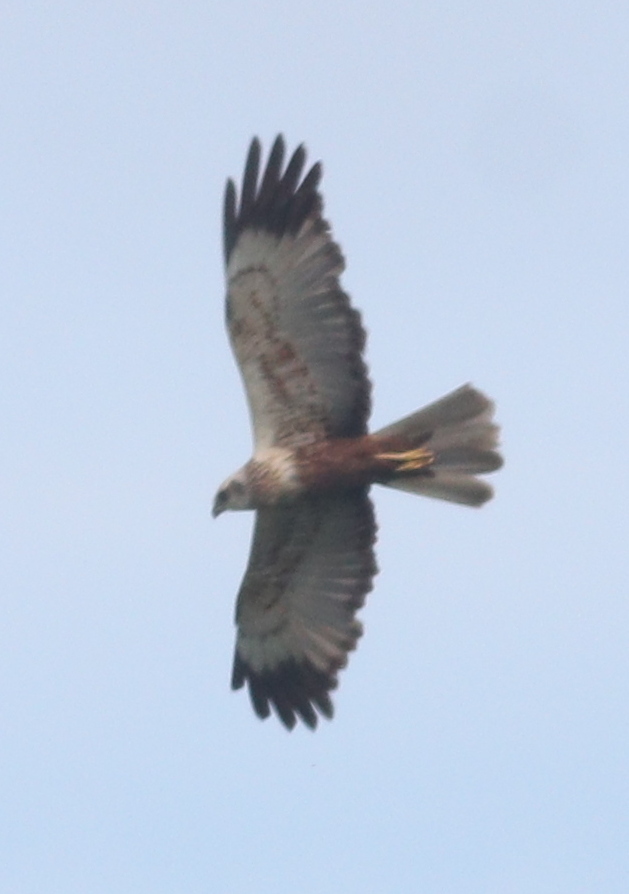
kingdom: Animalia
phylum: Chordata
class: Aves
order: Accipitriformes
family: Accipitridae
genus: Circus
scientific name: Circus aeruginosus
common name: Western marsh harrier
